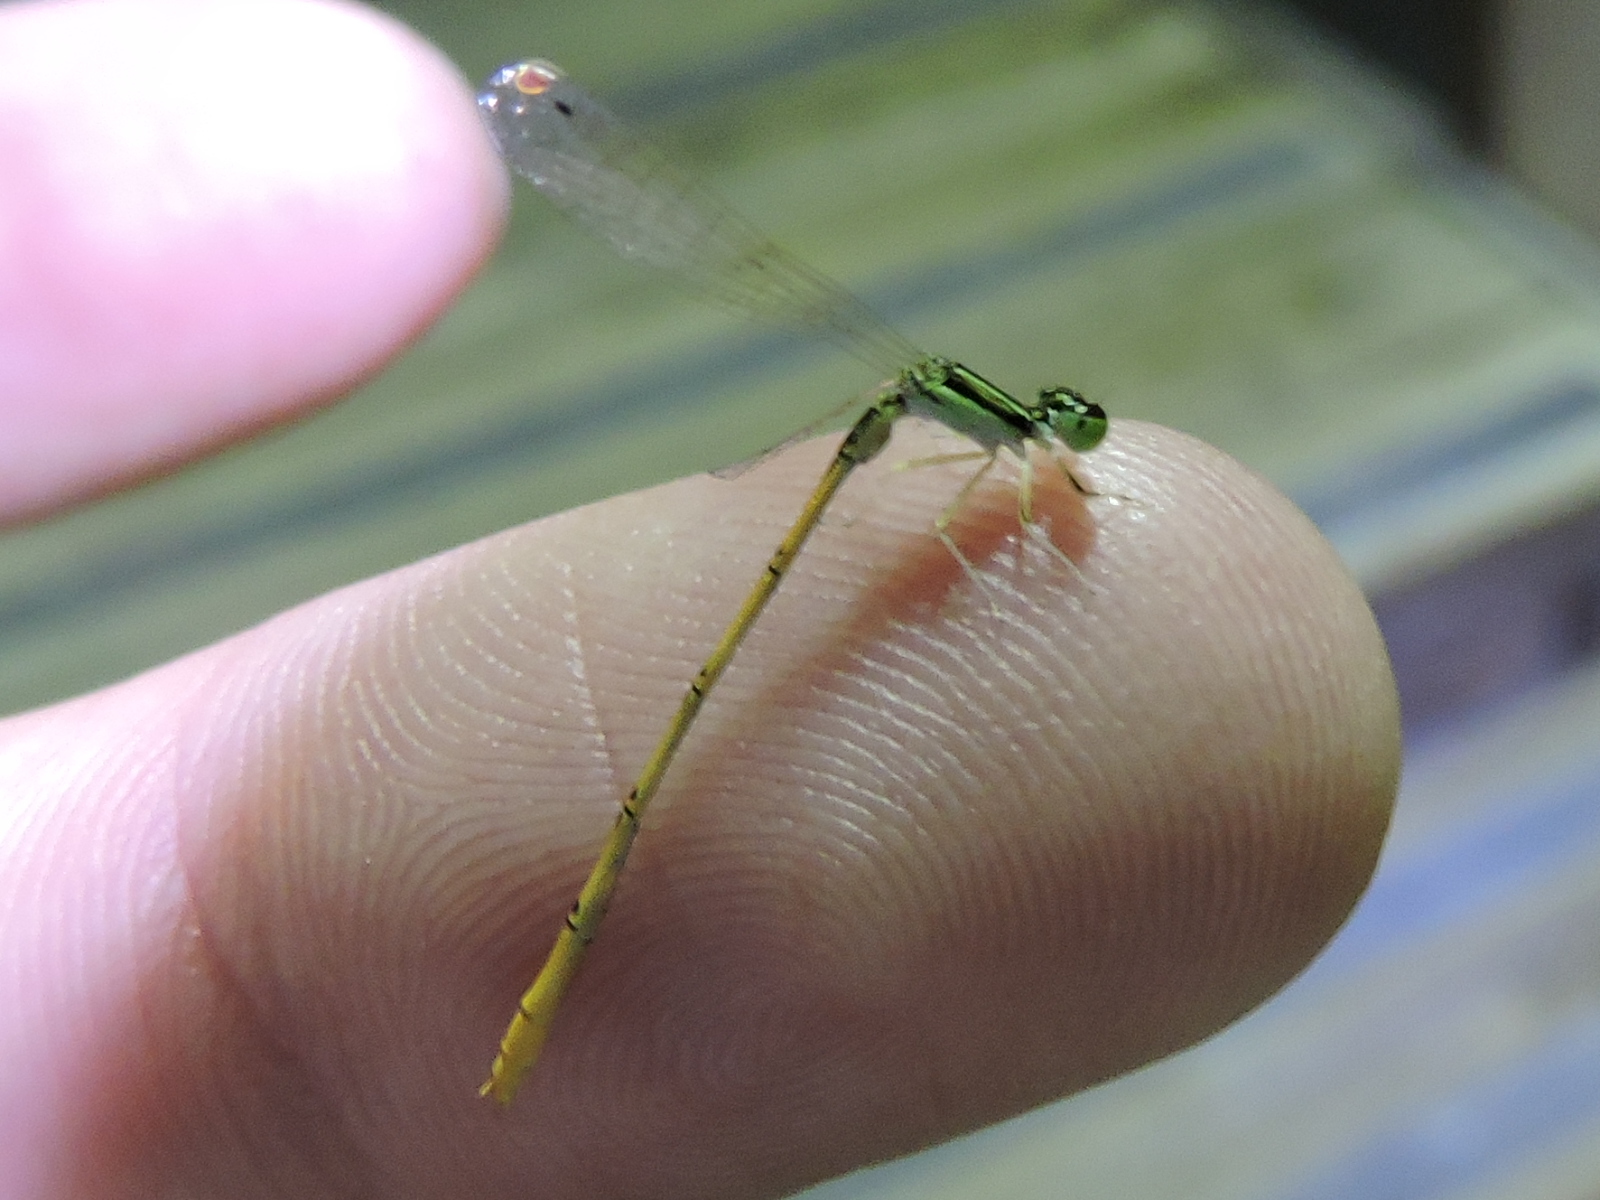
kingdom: Animalia
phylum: Arthropoda
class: Insecta
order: Odonata
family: Coenagrionidae
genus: Ischnura
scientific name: Ischnura hastata
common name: Citrine forktail
